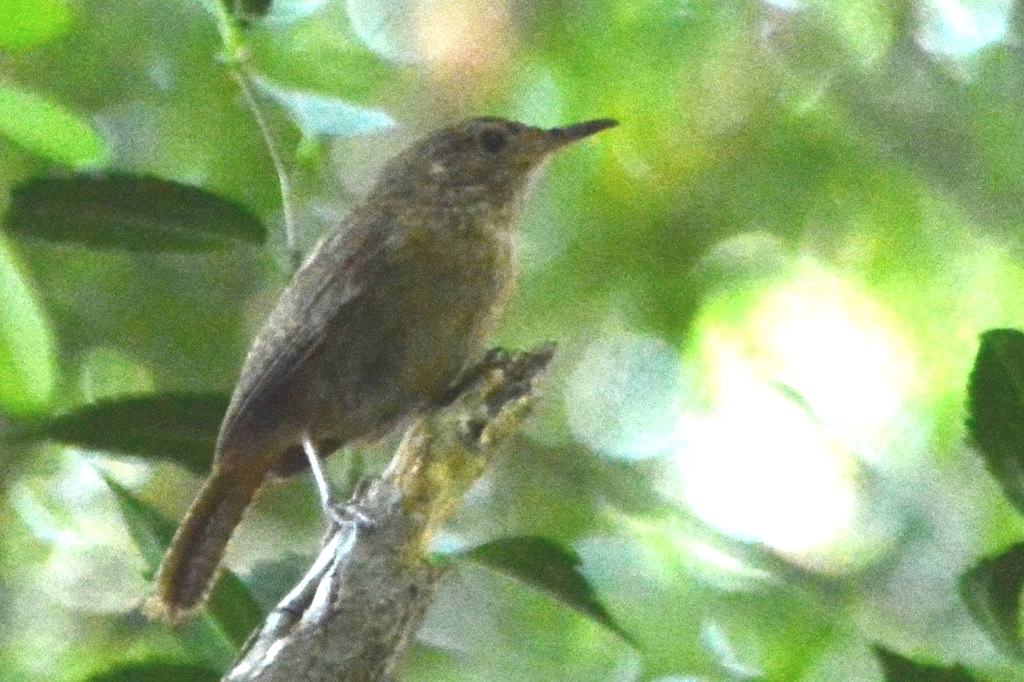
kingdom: Animalia
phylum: Chordata
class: Aves
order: Passeriformes
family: Troglodytidae
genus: Troglodytes
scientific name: Troglodytes aedon
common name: House wren
